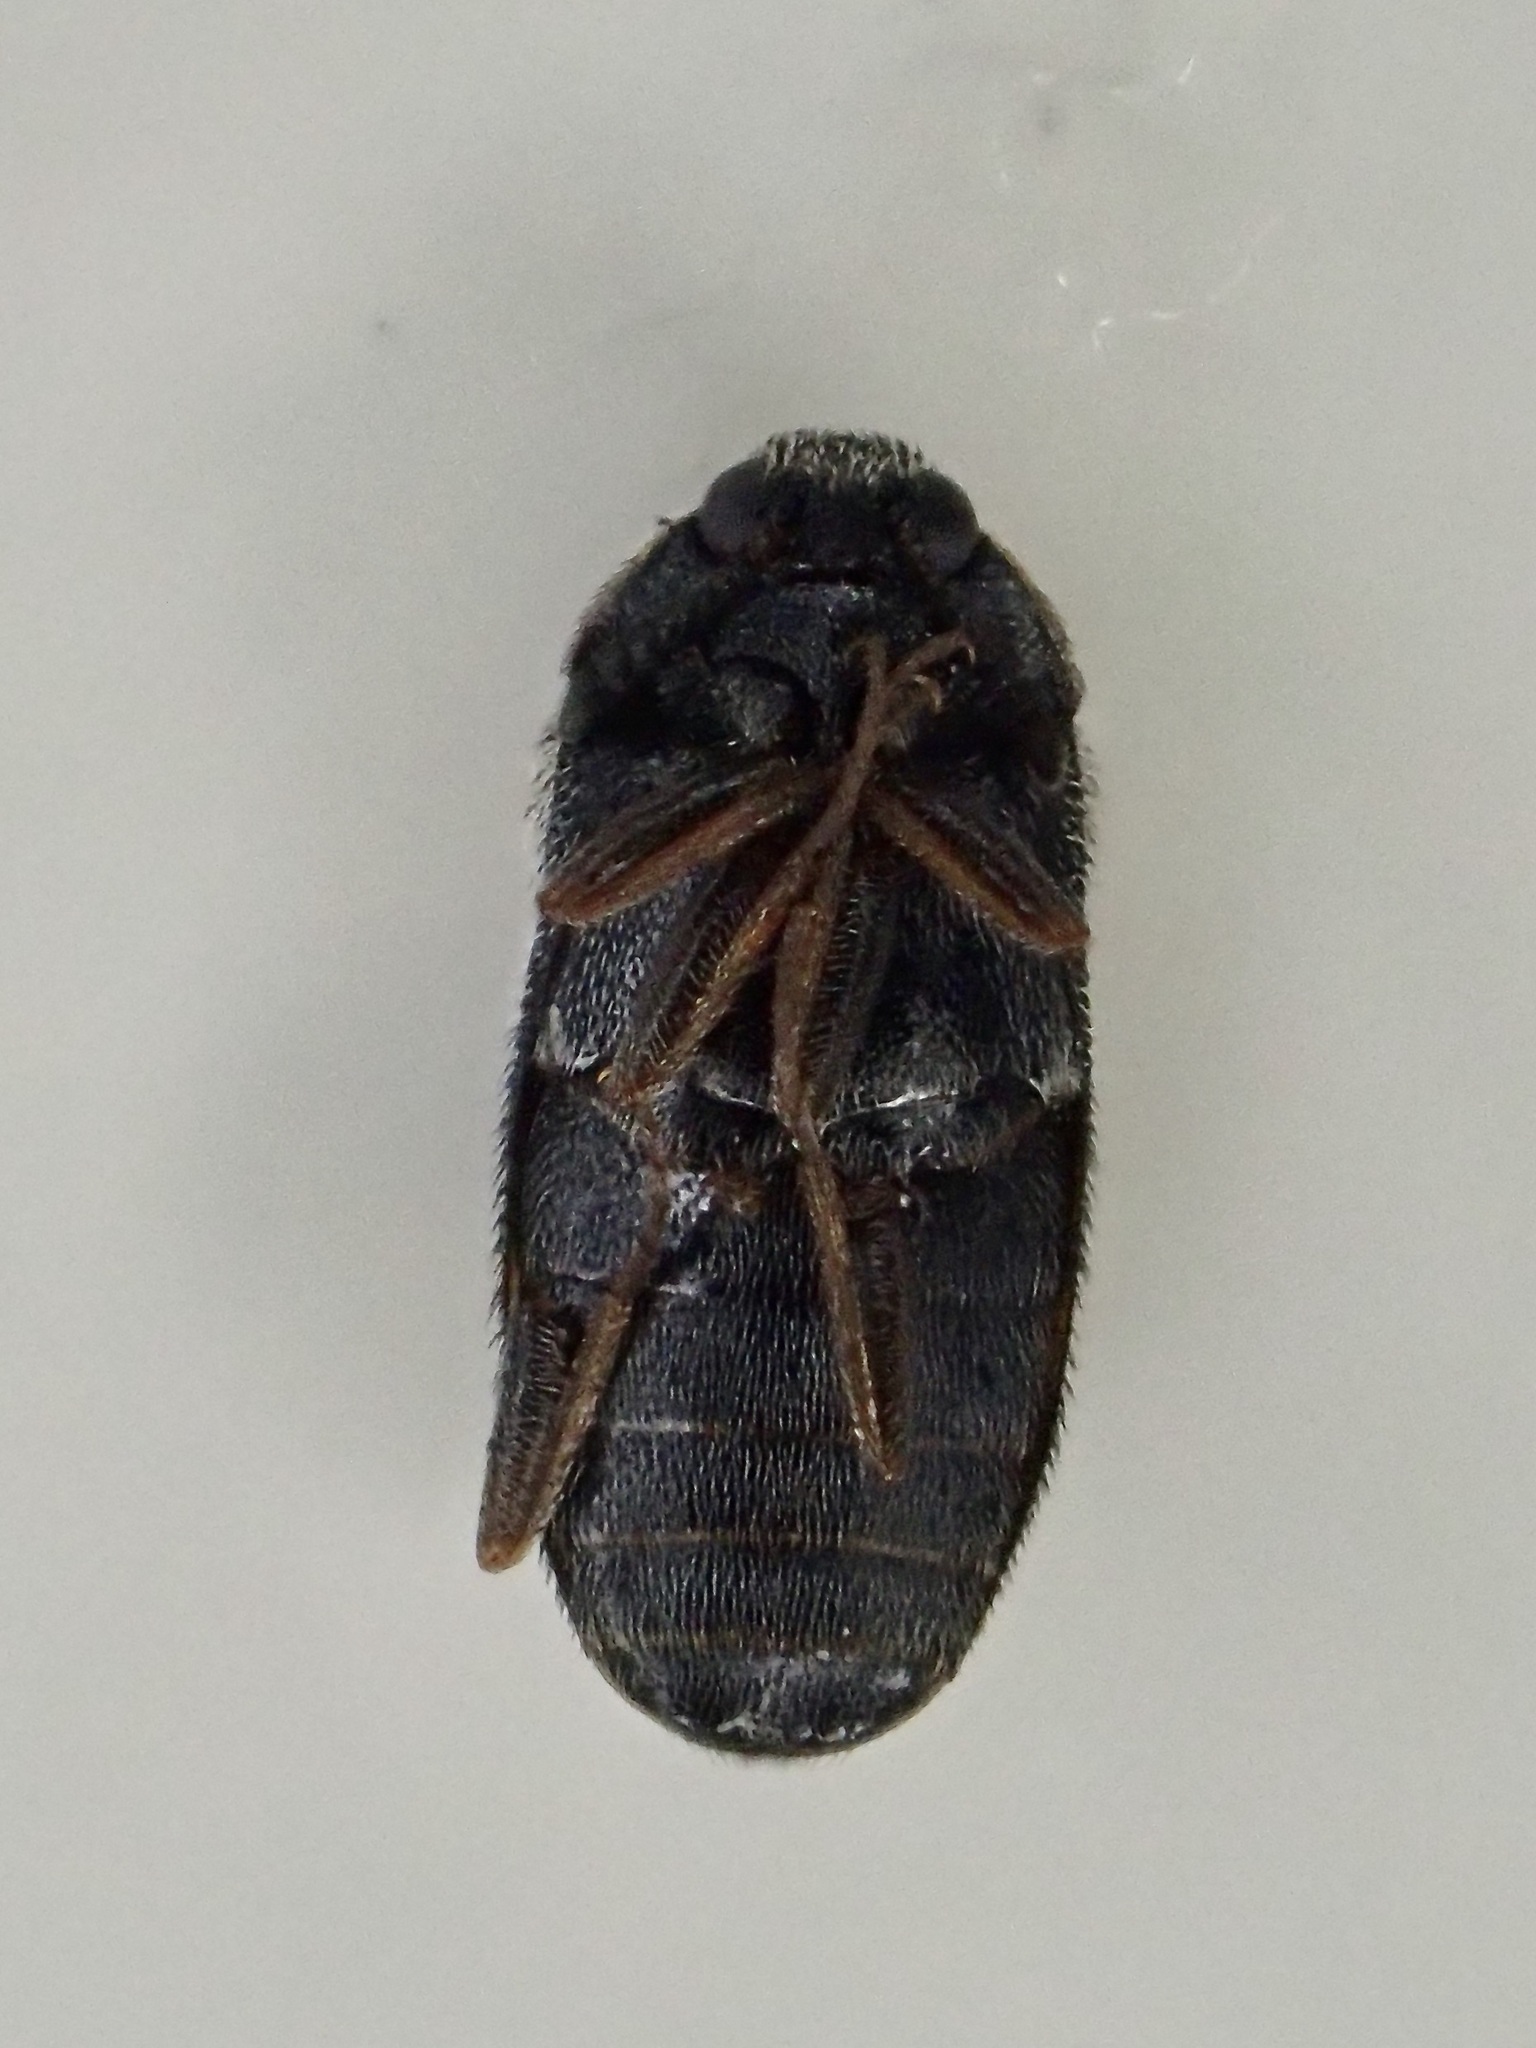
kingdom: Animalia
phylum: Arthropoda
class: Insecta
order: Coleoptera
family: Dermestidae
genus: Trogoderma
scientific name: Trogoderma angustum
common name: Skin beetle
